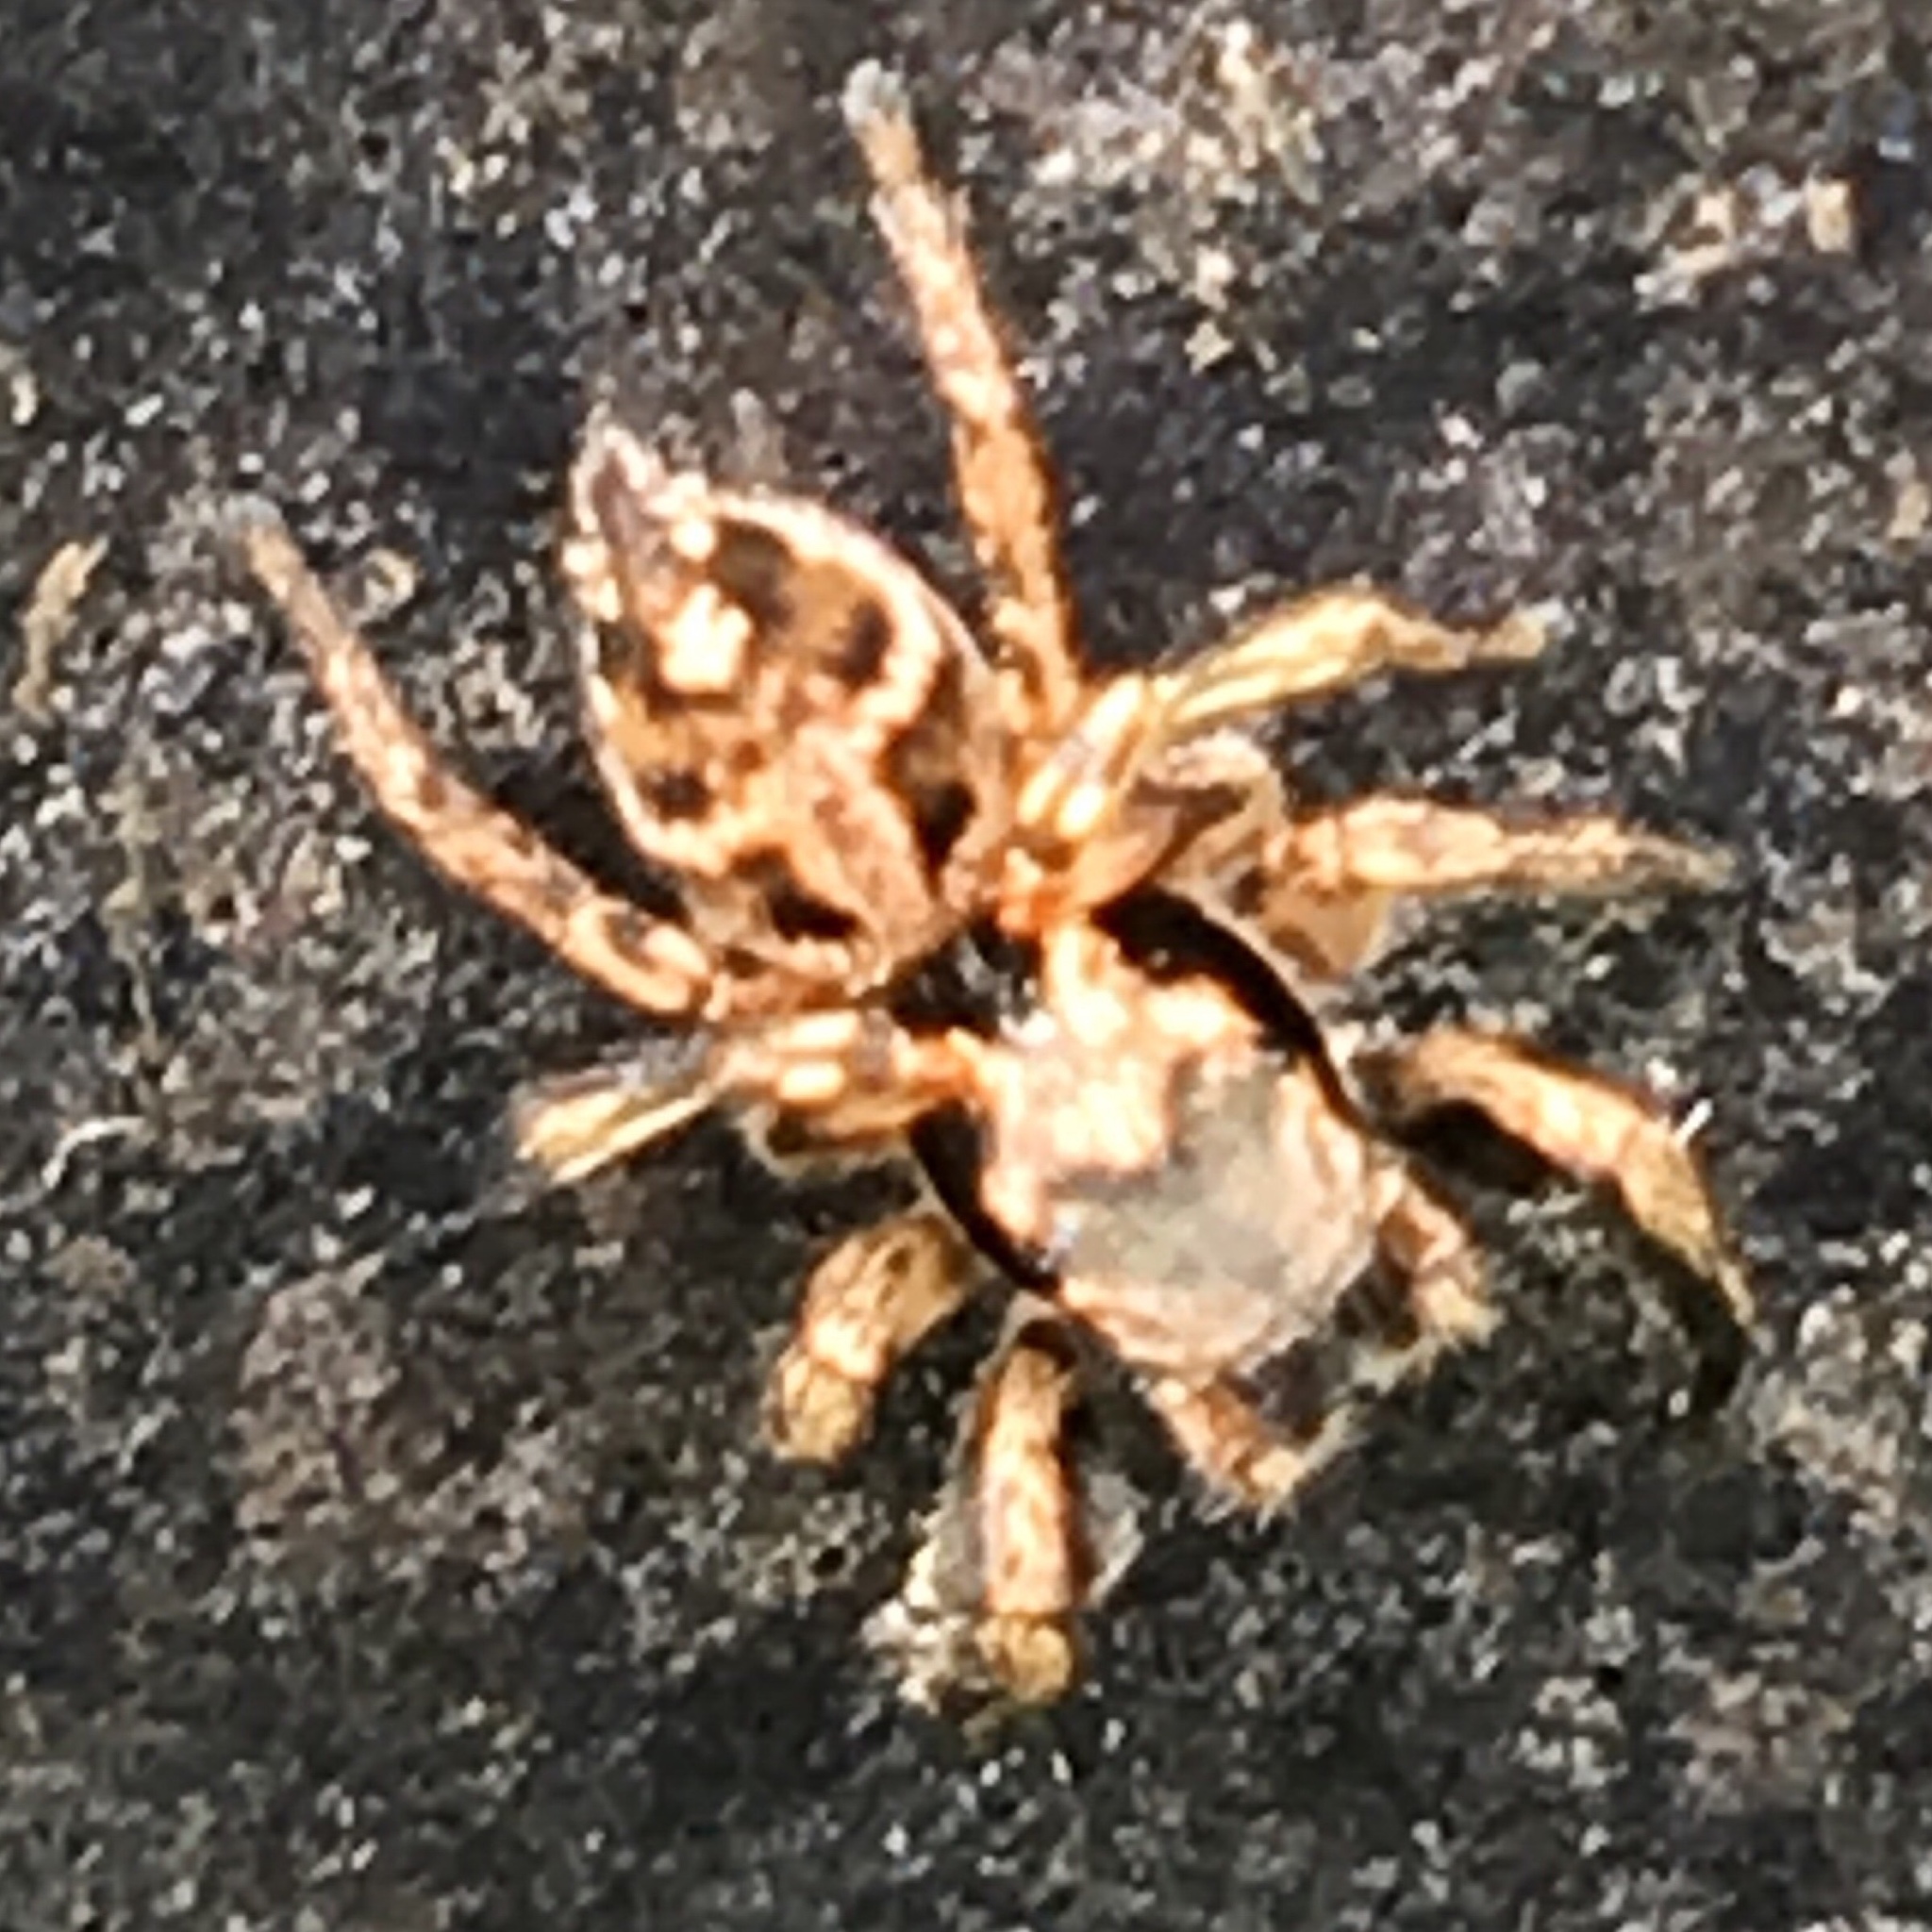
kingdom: Animalia
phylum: Arthropoda
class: Arachnida
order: Araneae
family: Salticidae
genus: Habronattus
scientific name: Habronattus coecatus
